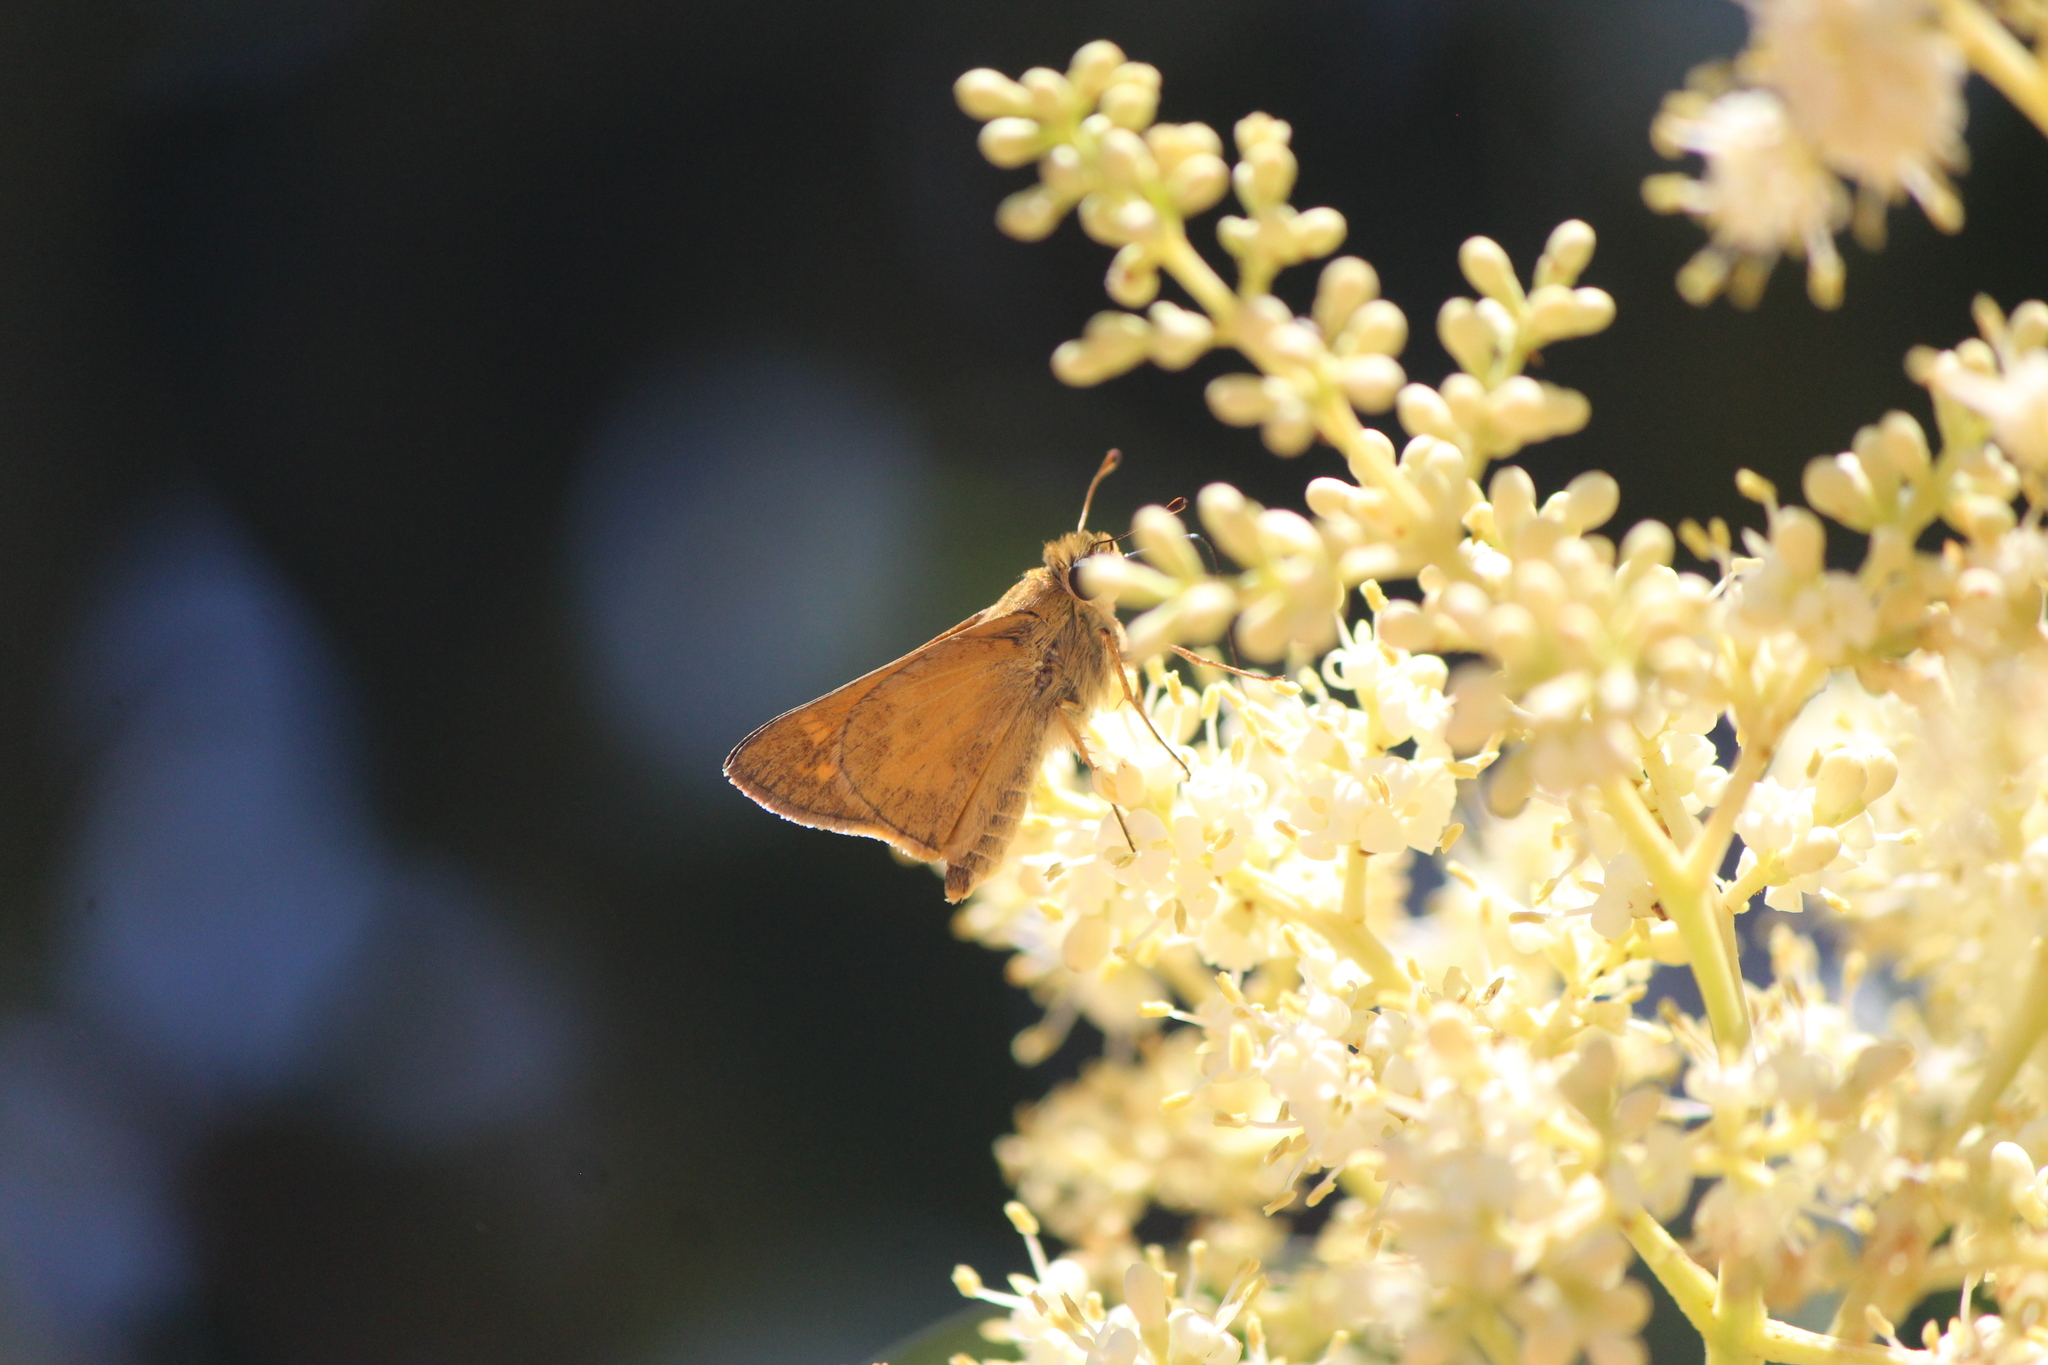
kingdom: Animalia
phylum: Arthropoda
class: Insecta
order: Lepidoptera
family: Hesperiidae
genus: Atalopedes
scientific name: Atalopedes
